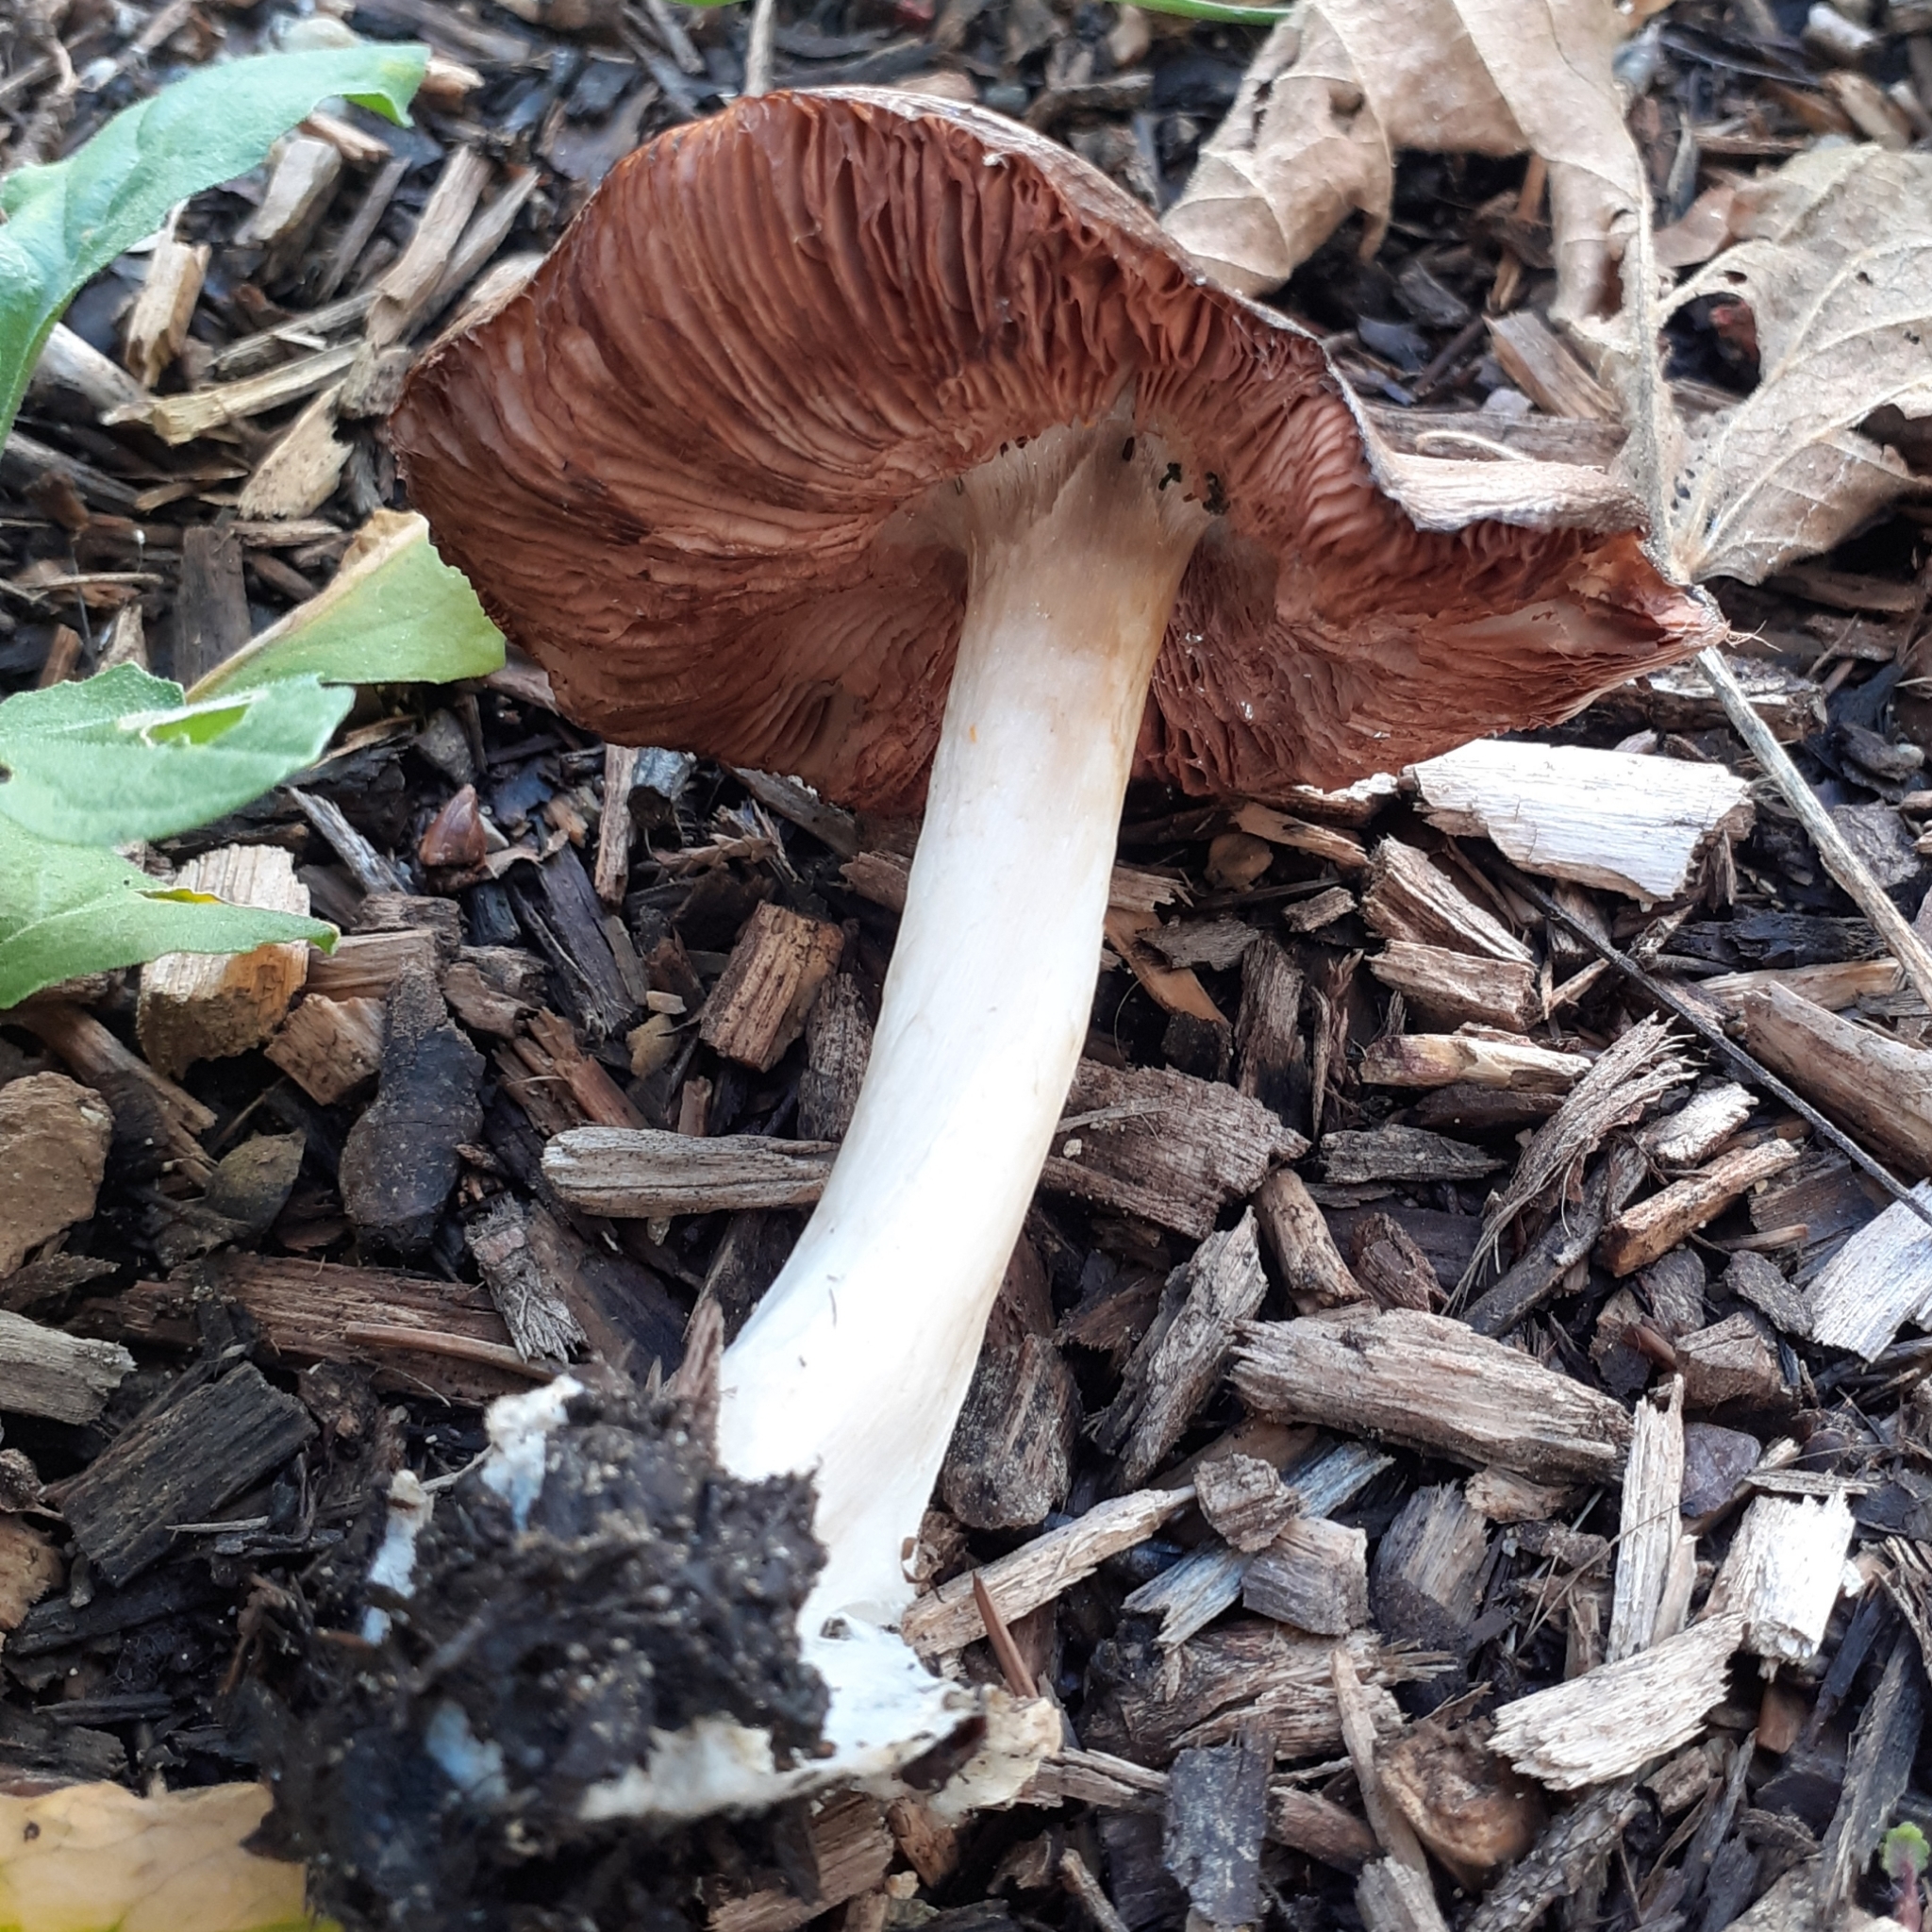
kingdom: Fungi
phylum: Basidiomycota
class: Agaricomycetes
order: Agaricales
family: Pluteaceae
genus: Volvopluteus
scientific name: Volvopluteus gloiocephalus
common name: Stubble rosegill
